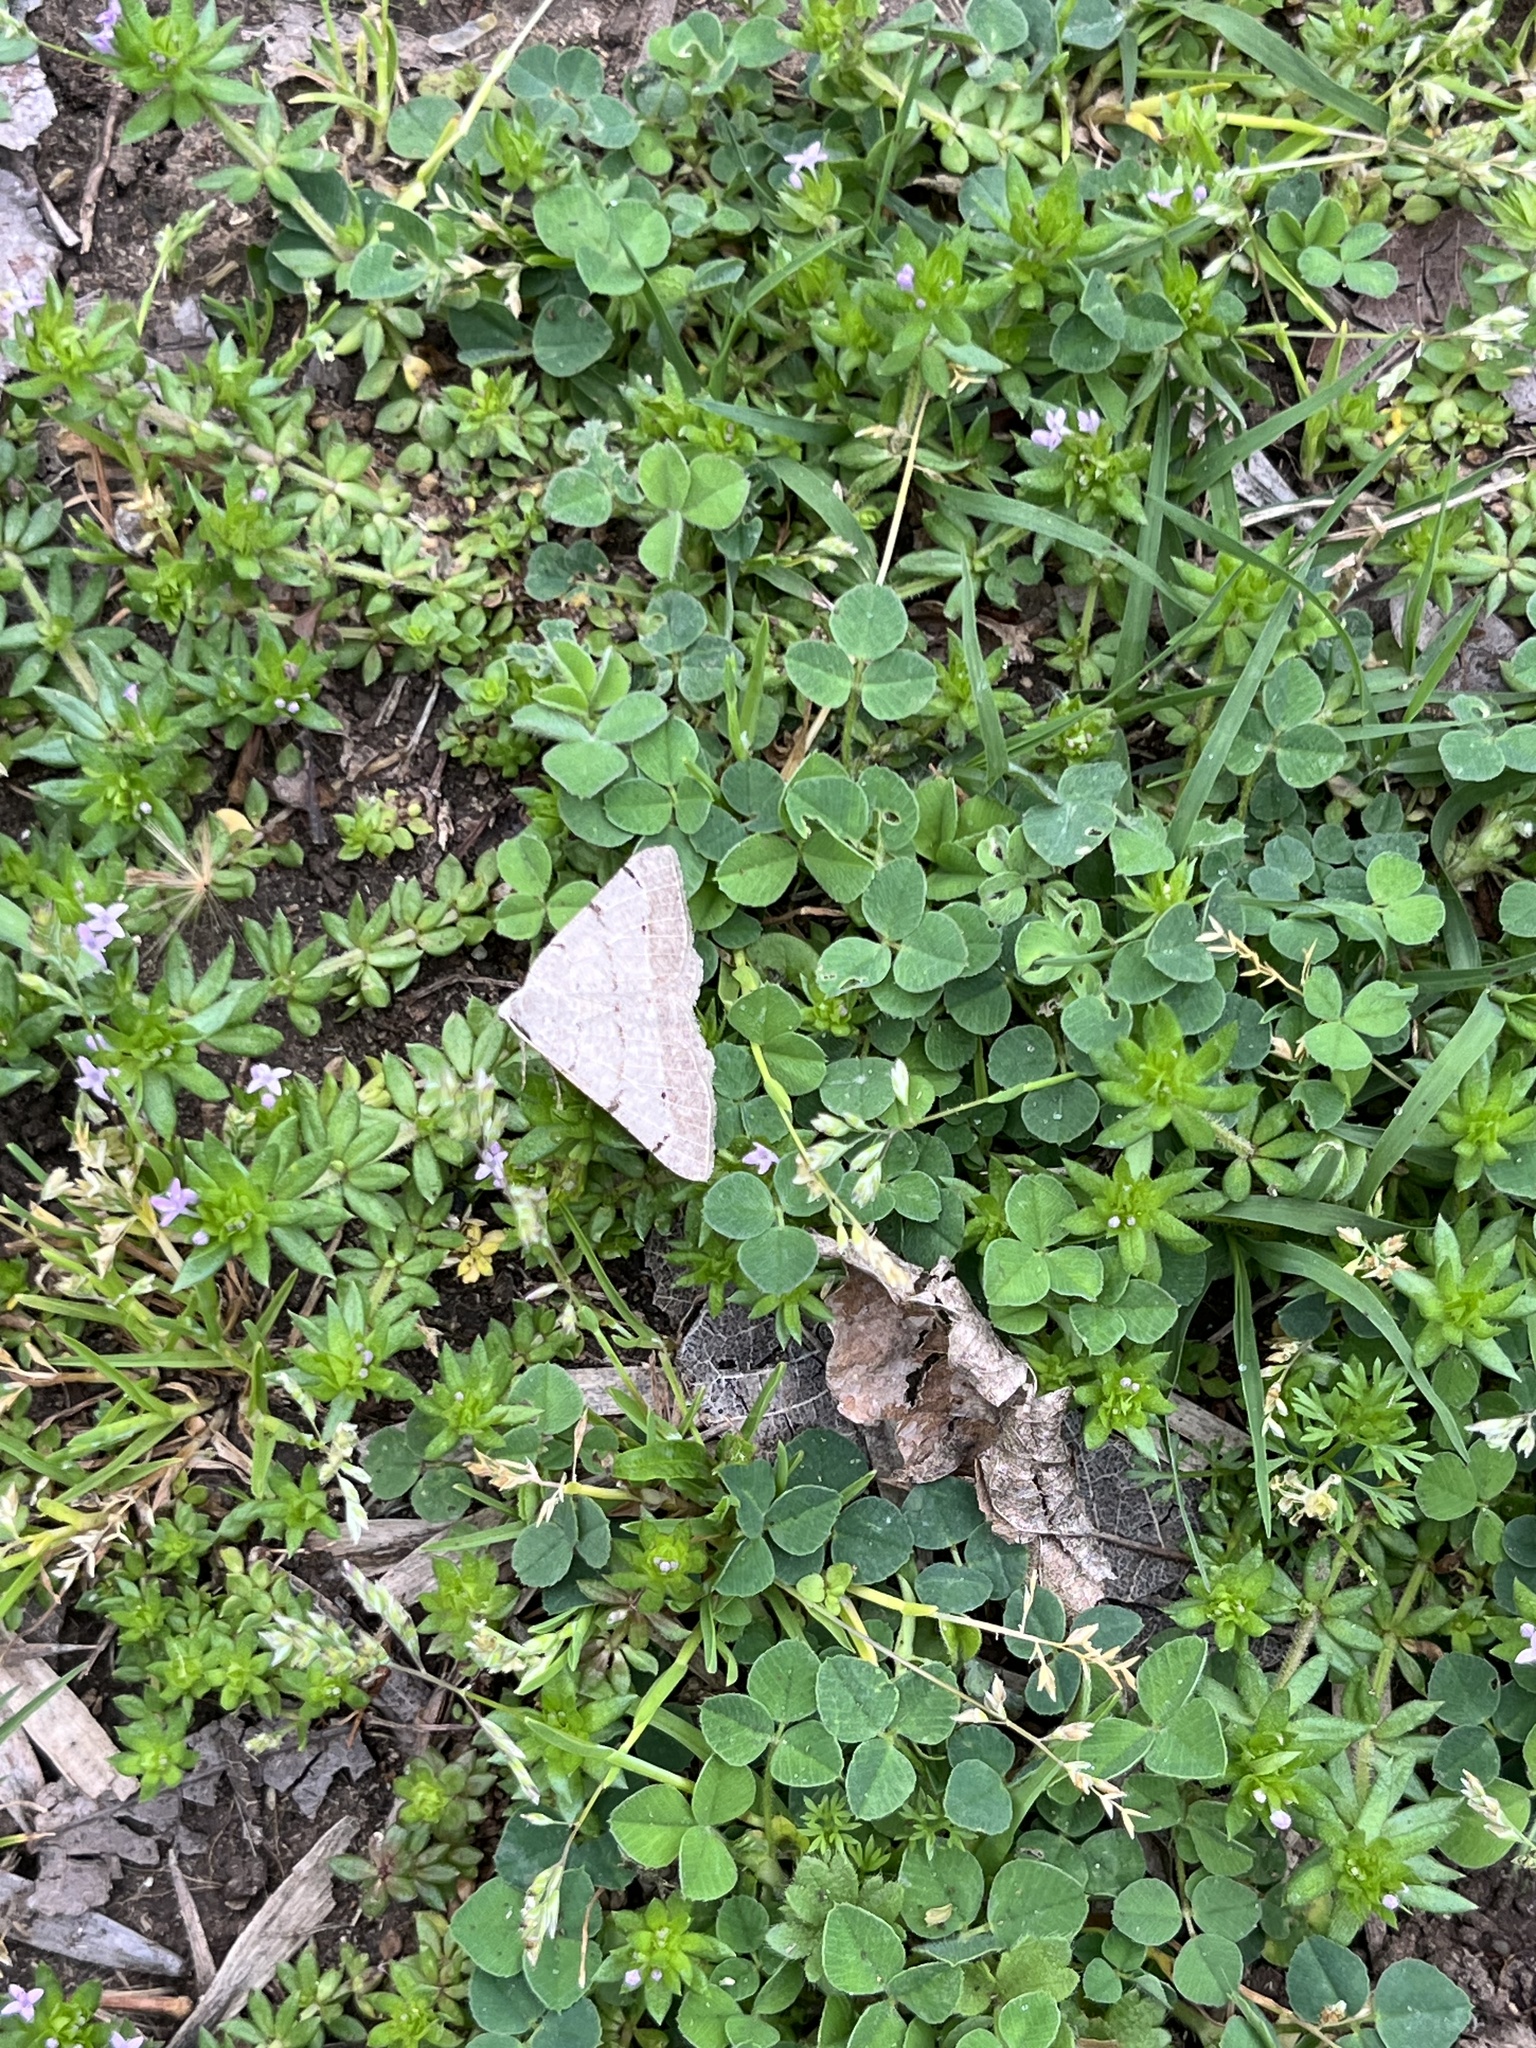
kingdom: Animalia
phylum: Arthropoda
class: Insecta
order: Lepidoptera
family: Geometridae
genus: Isturgia
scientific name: Isturgia dislocaria
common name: Pale-viened enconista
